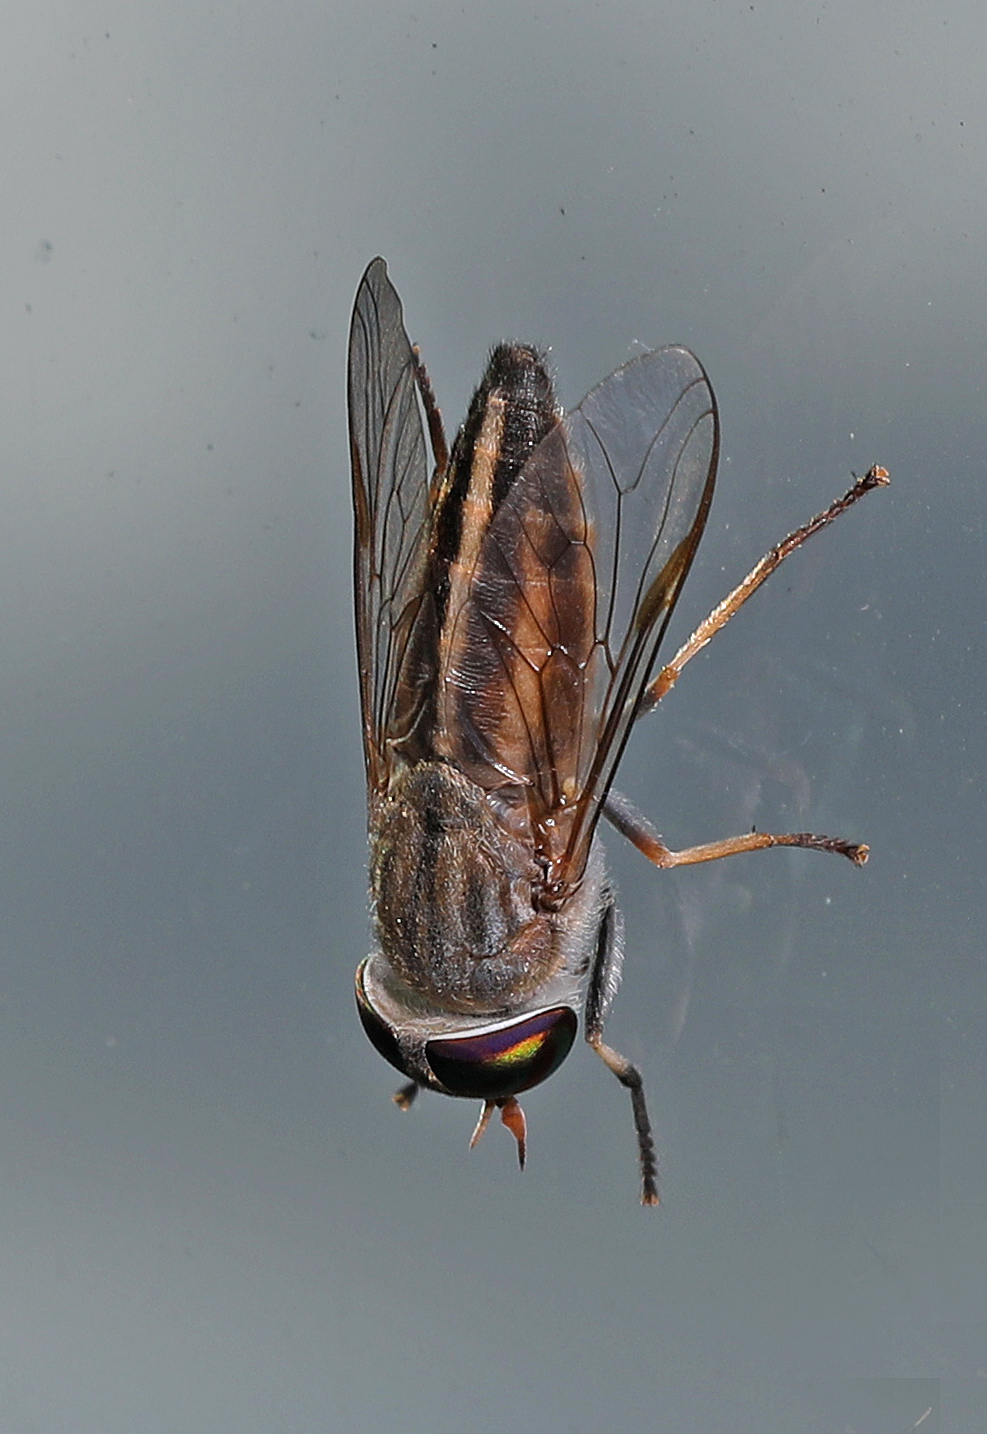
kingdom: Animalia
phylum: Arthropoda
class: Insecta
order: Diptera
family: Tabanidae
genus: Tabanus
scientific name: Tabanus lineola
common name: Striped horse fly
